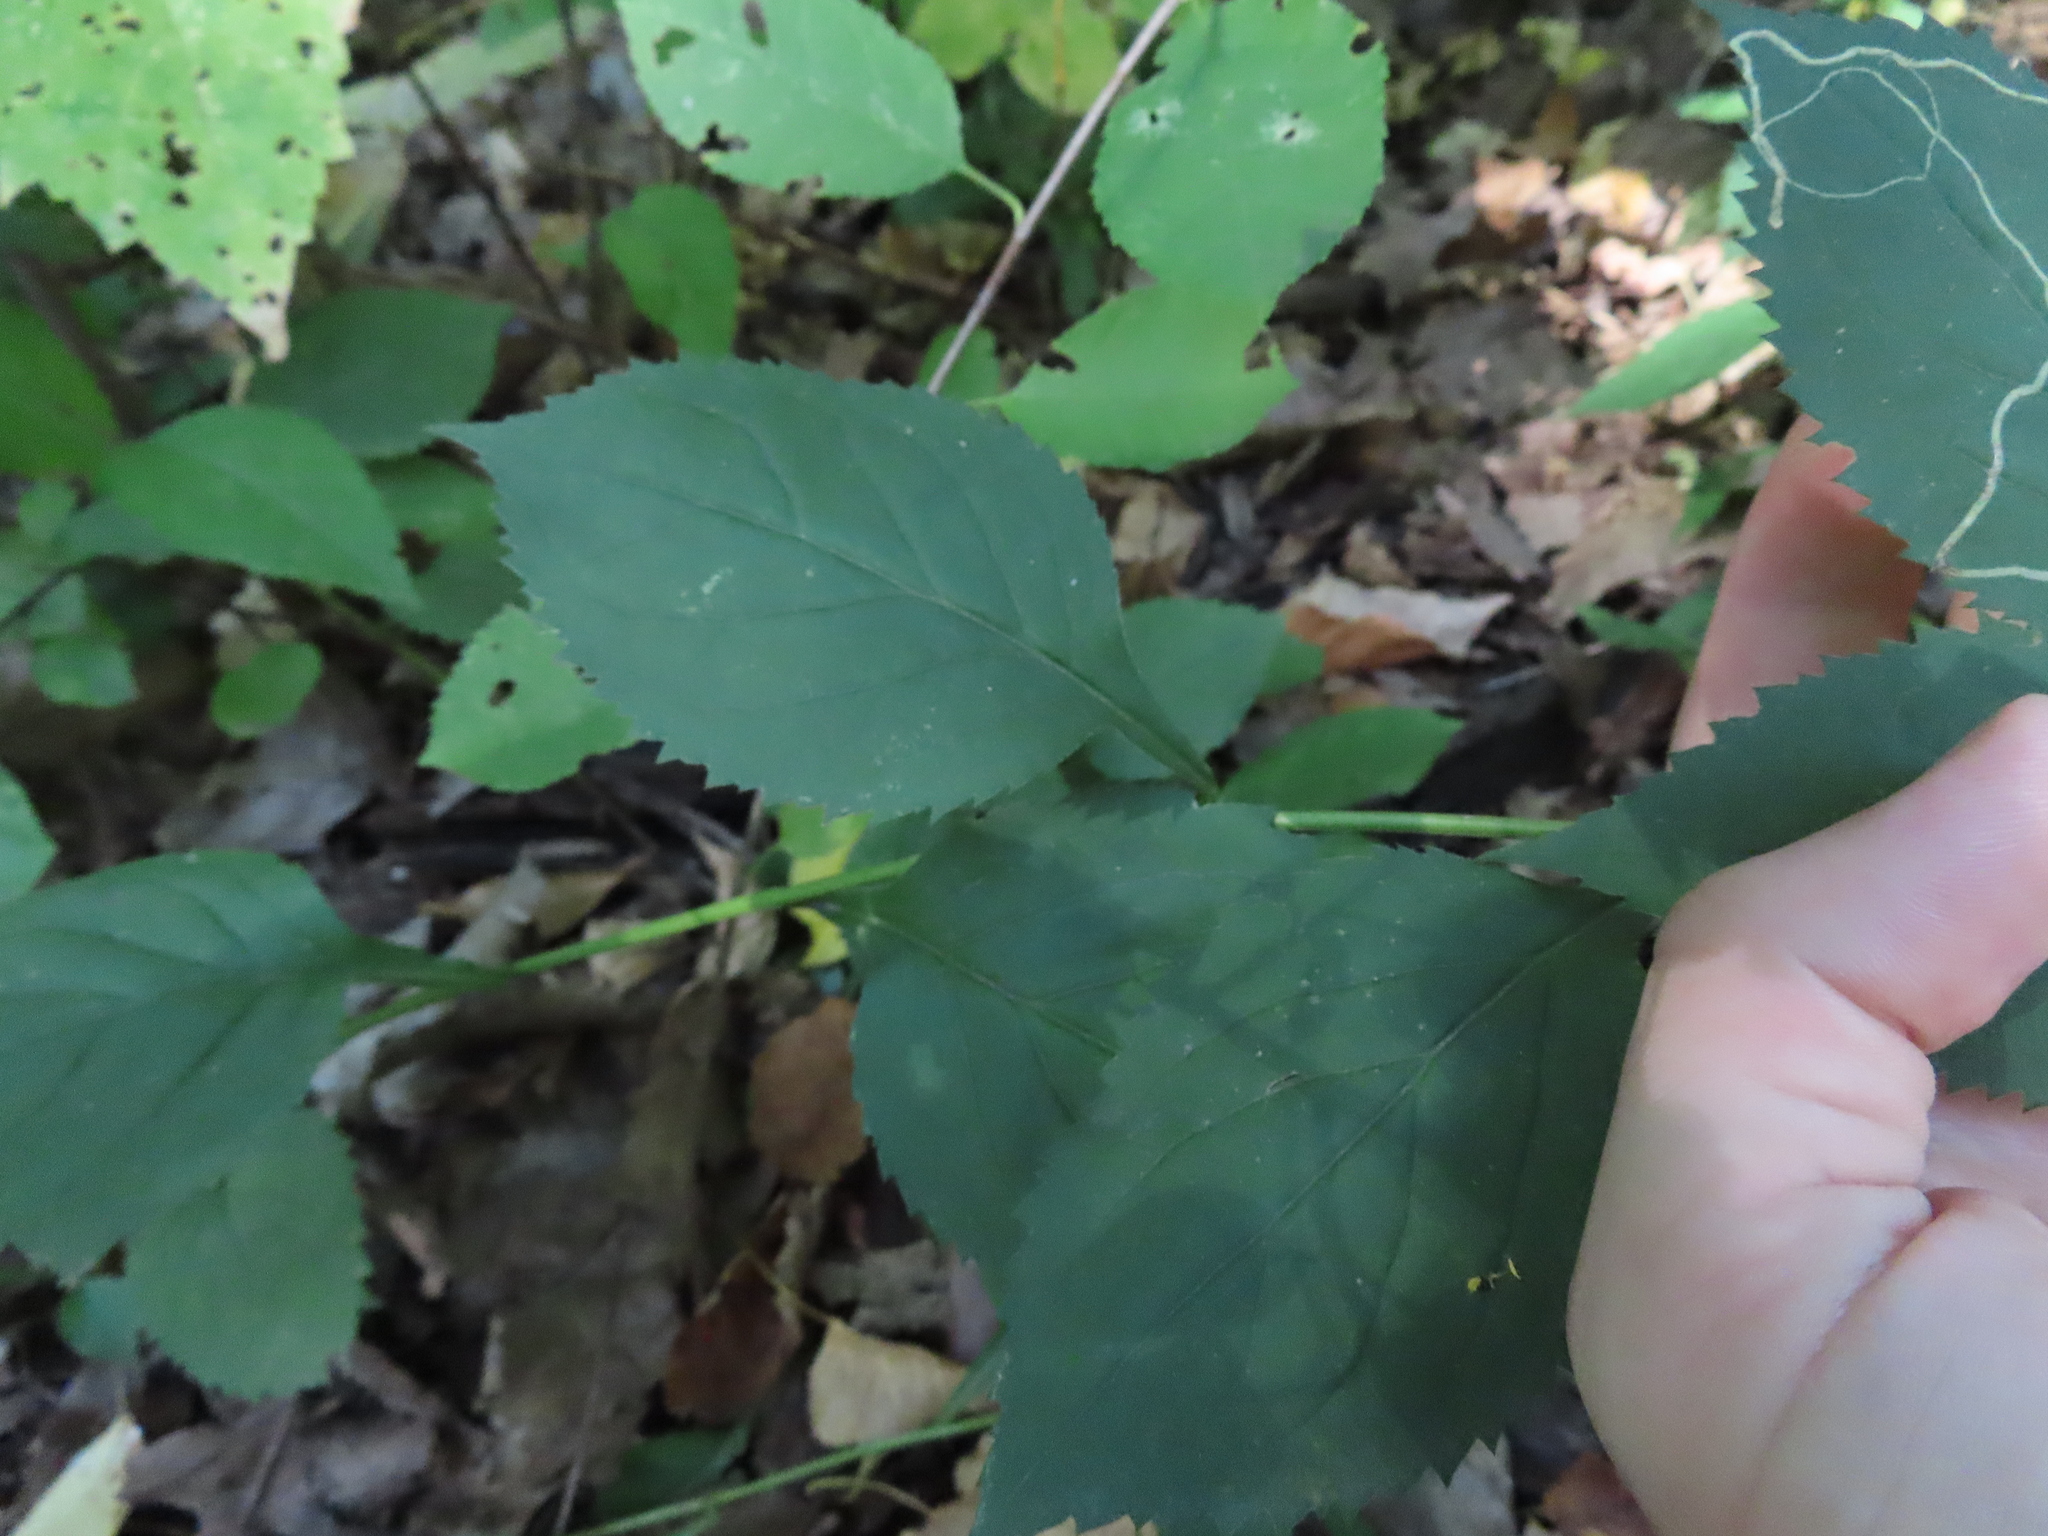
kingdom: Plantae
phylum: Tracheophyta
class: Magnoliopsida
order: Asterales
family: Asteraceae
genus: Solidago
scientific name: Solidago flexicaulis
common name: Zig-zag goldenrod
